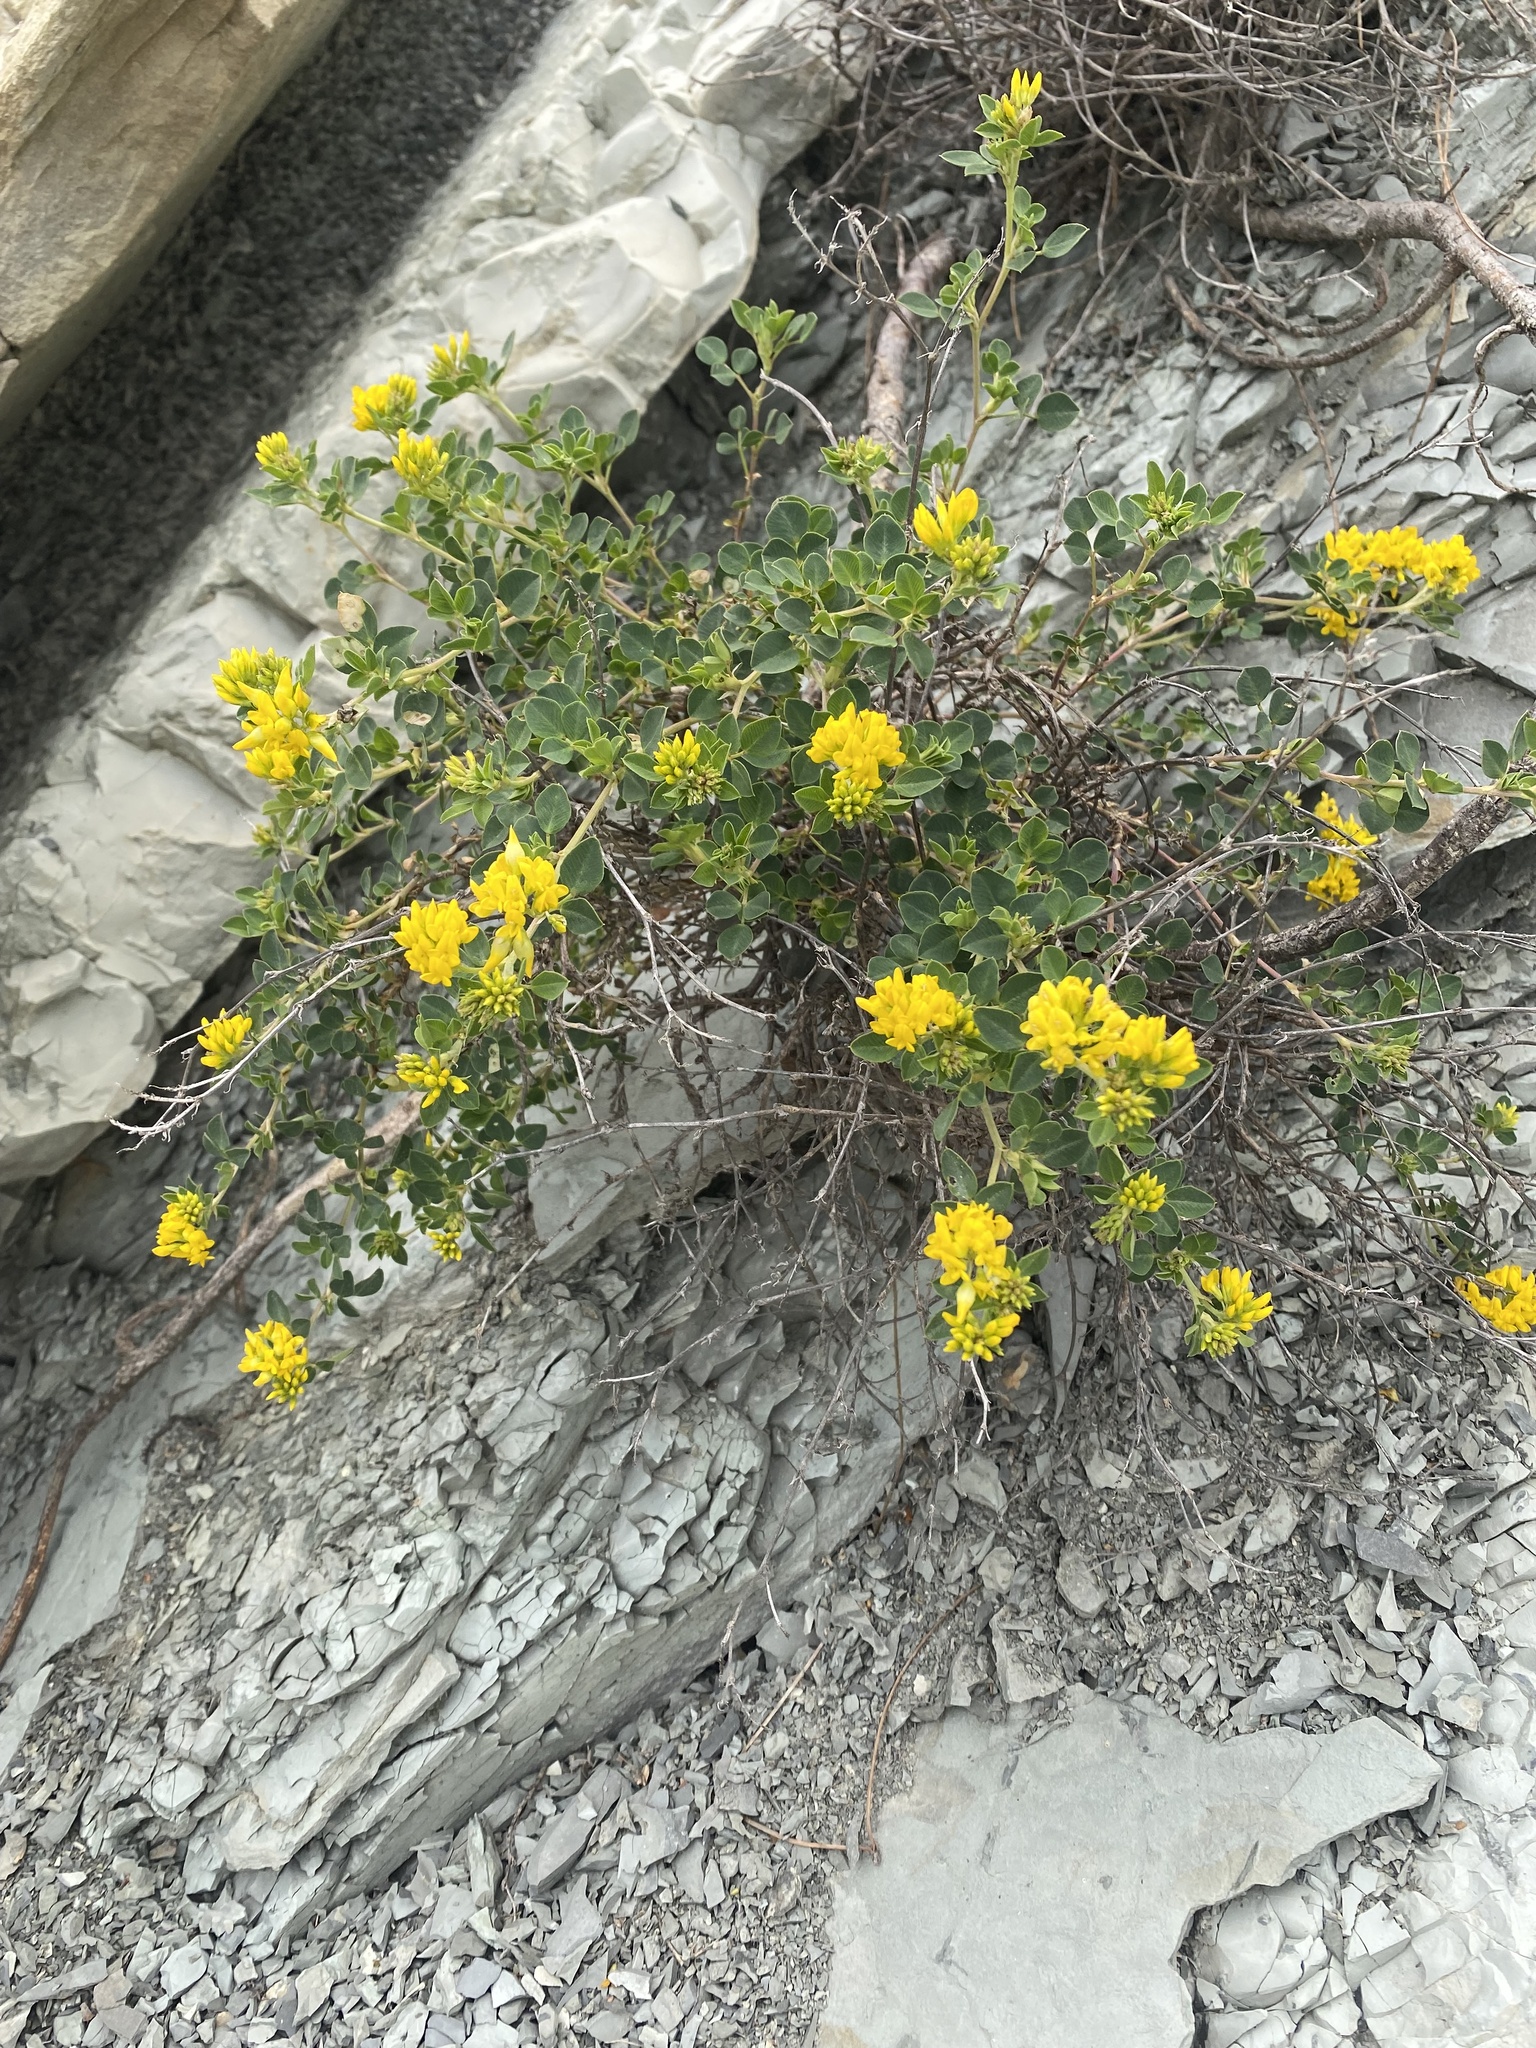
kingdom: Plantae
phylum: Tracheophyta
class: Magnoliopsida
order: Fabales
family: Fabaceae
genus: Medicago
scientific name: Medicago cretacea
